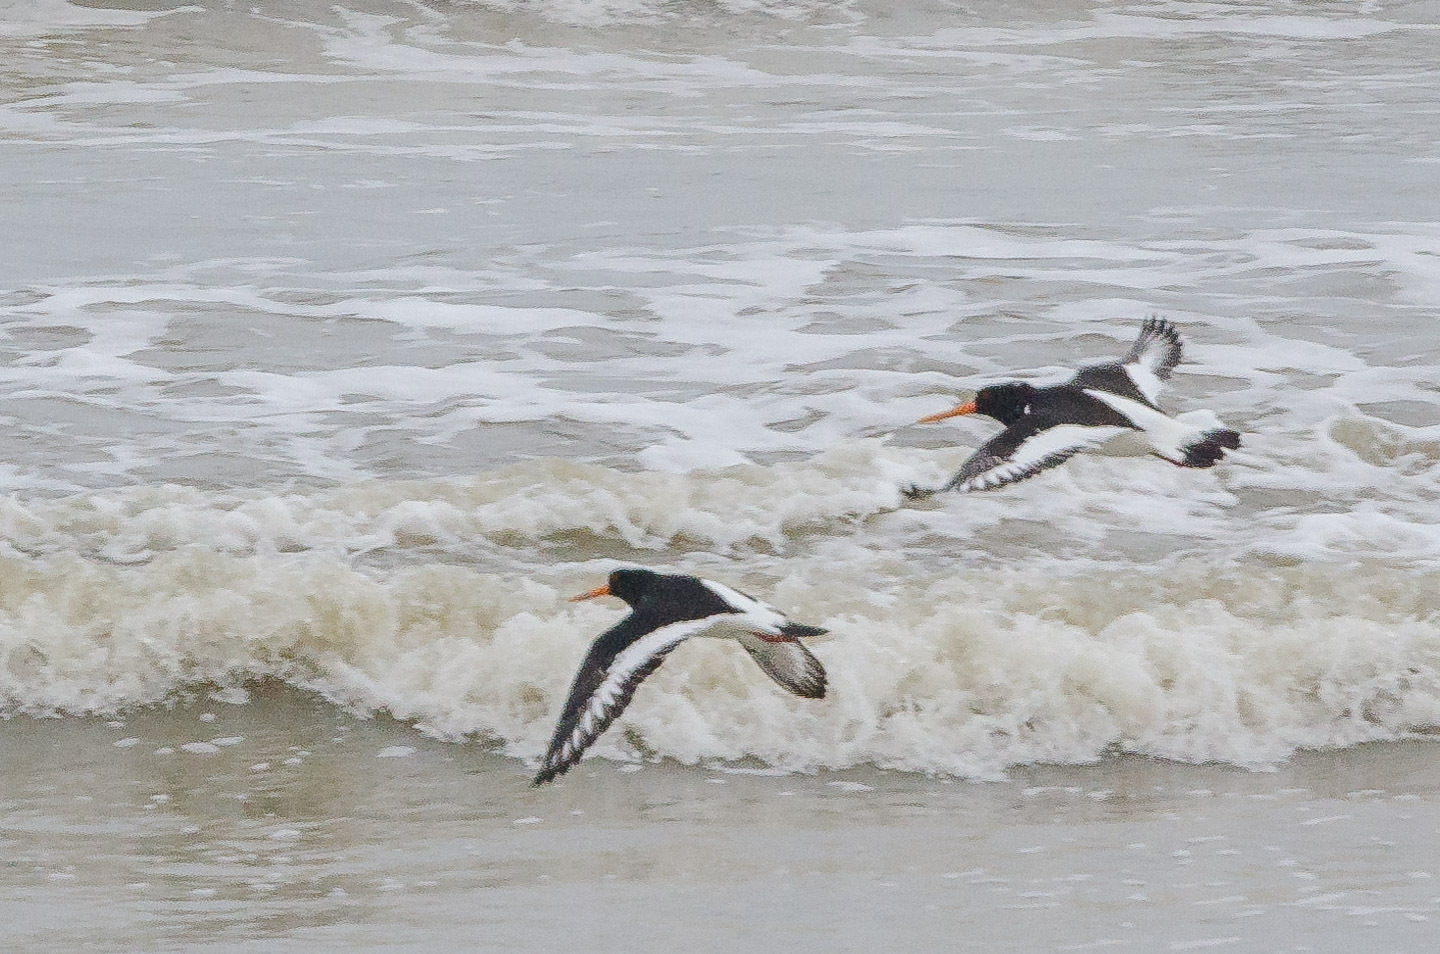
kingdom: Animalia
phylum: Chordata
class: Aves
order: Charadriiformes
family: Haematopodidae
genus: Haematopus
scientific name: Haematopus ostralegus
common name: Eurasian oystercatcher
